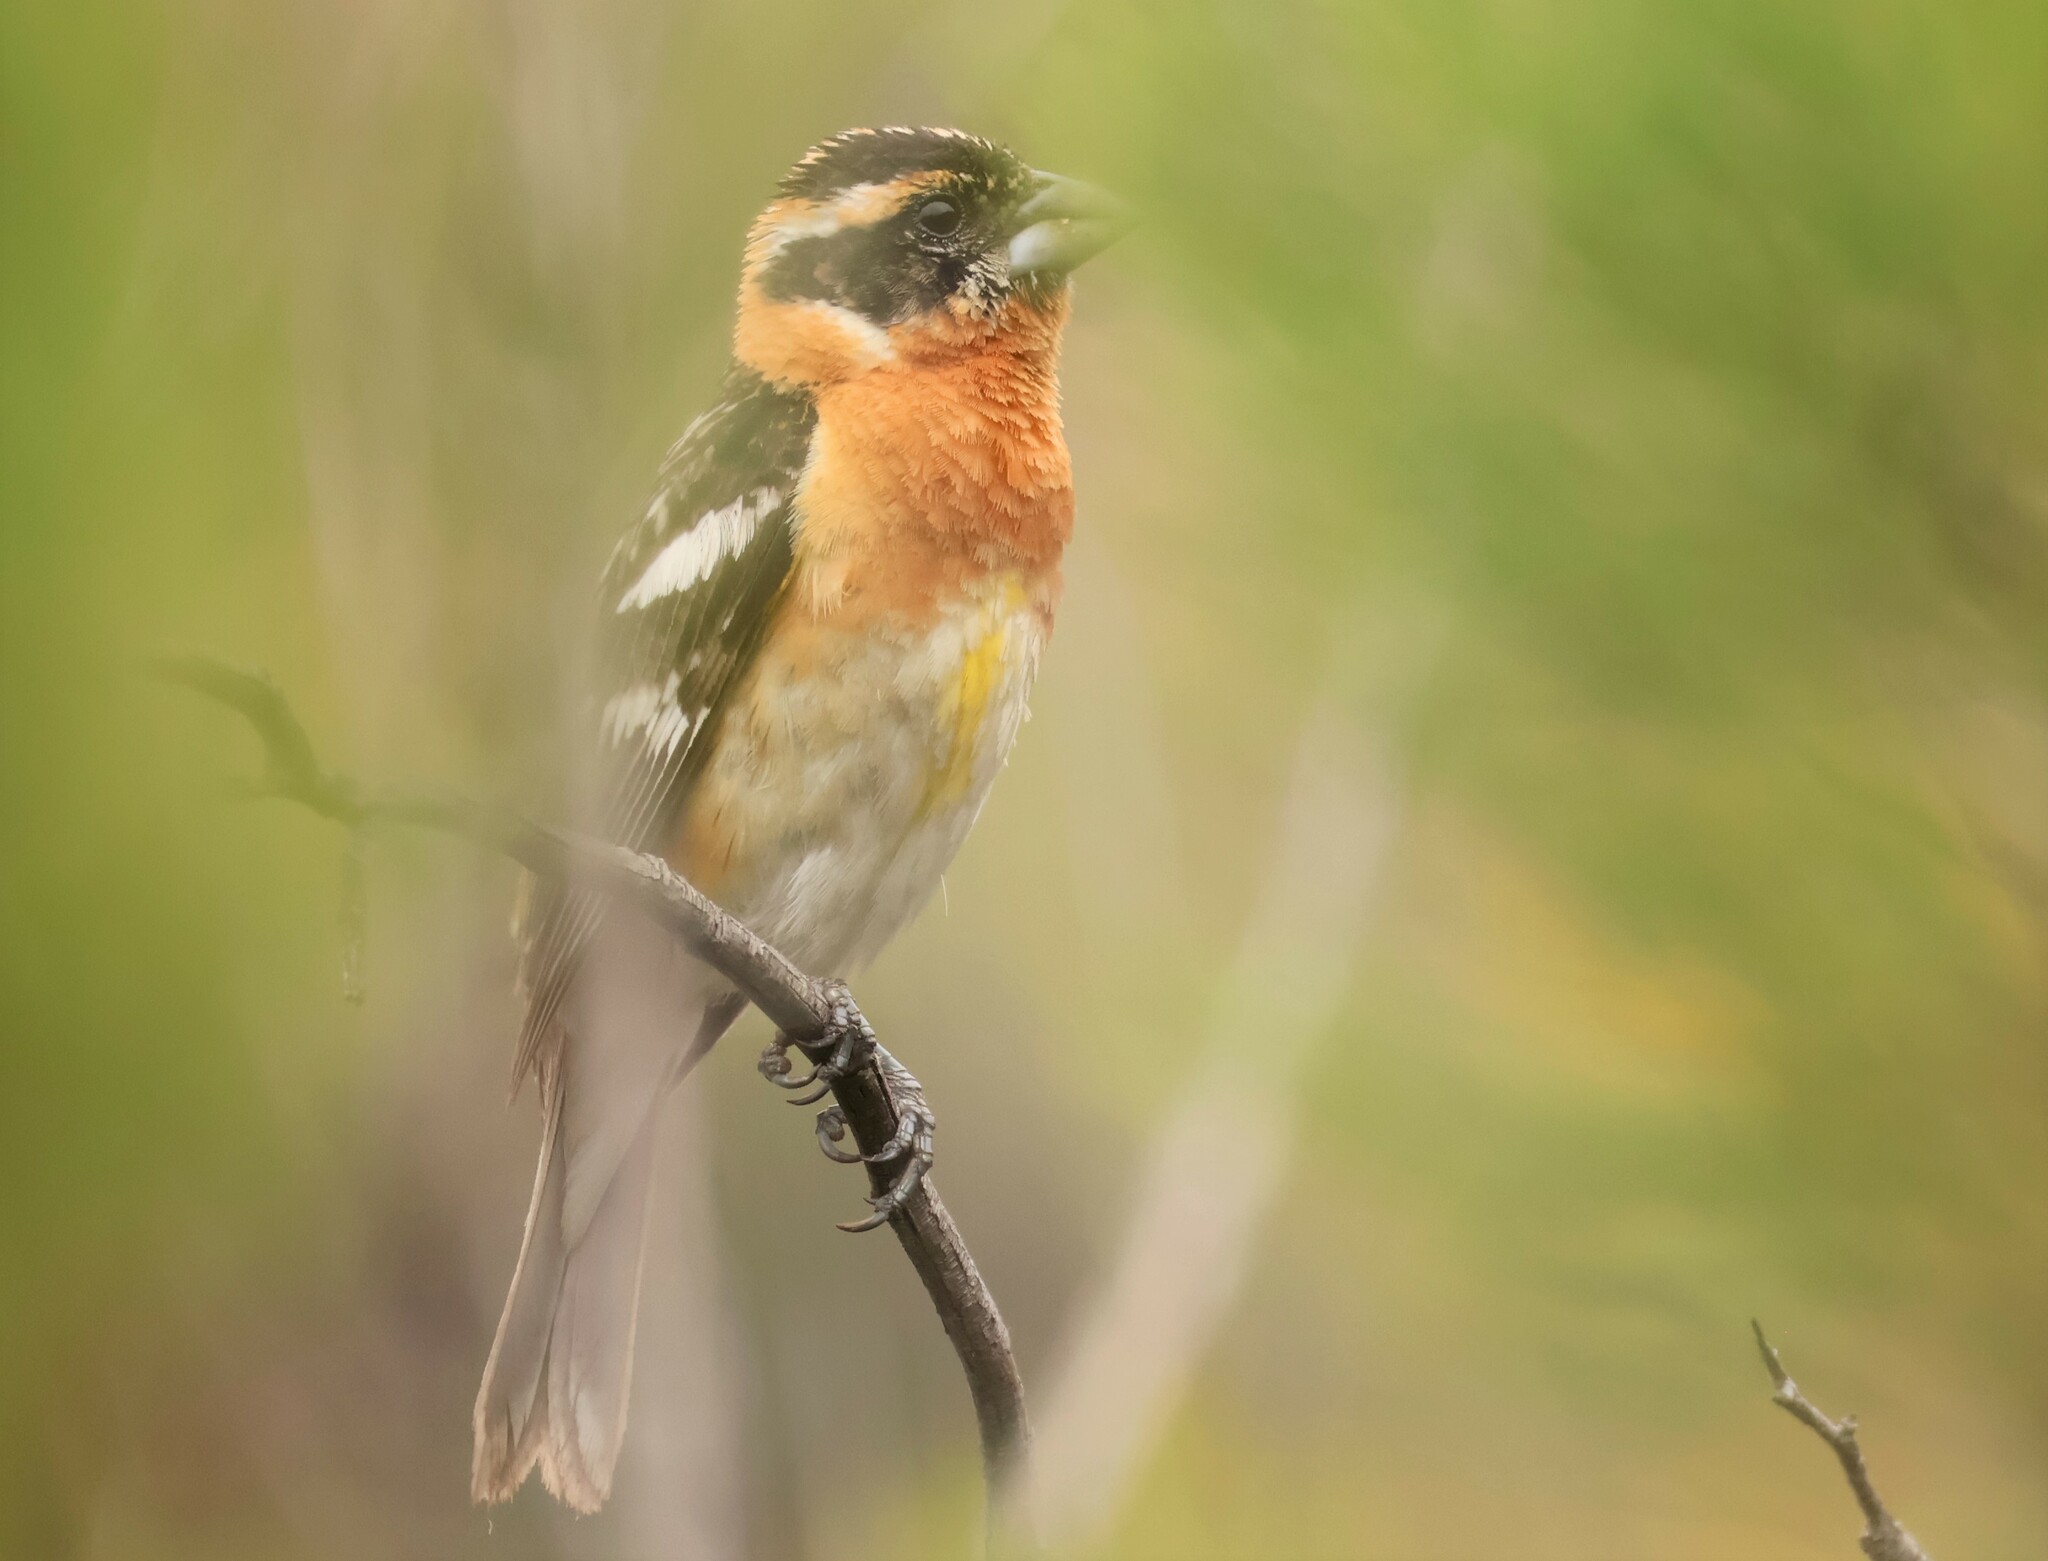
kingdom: Animalia
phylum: Chordata
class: Aves
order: Passeriformes
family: Cardinalidae
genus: Pheucticus
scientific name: Pheucticus melanocephalus
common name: Black-headed grosbeak
